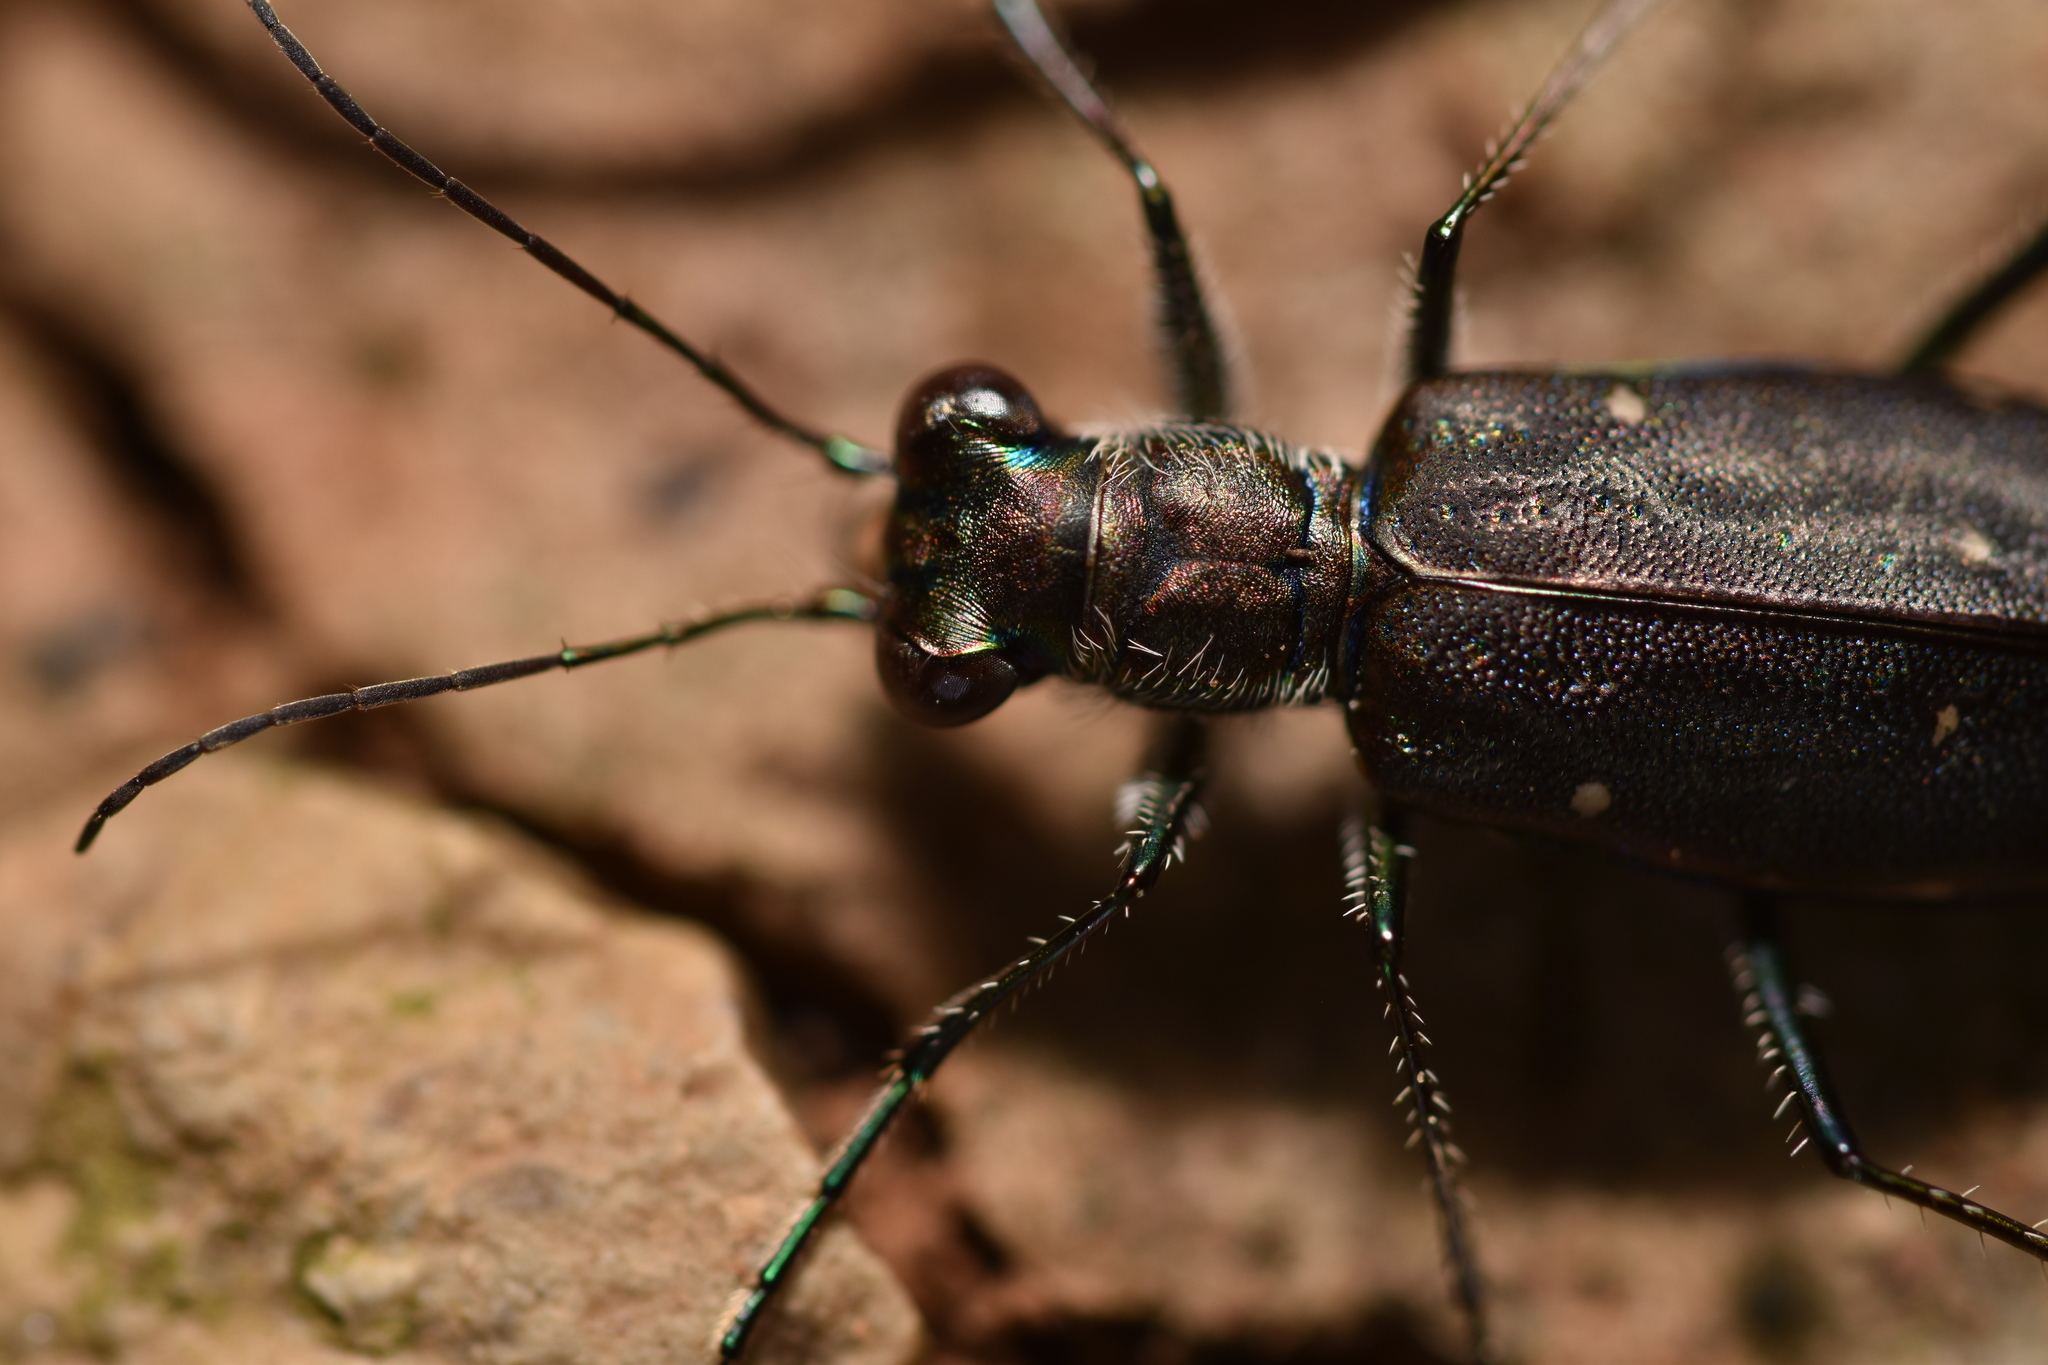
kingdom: Animalia
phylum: Arthropoda
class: Insecta
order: Coleoptera
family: Carabidae
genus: Cicindela
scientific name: Cicindela punctulata
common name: Punctured tiger beetle
